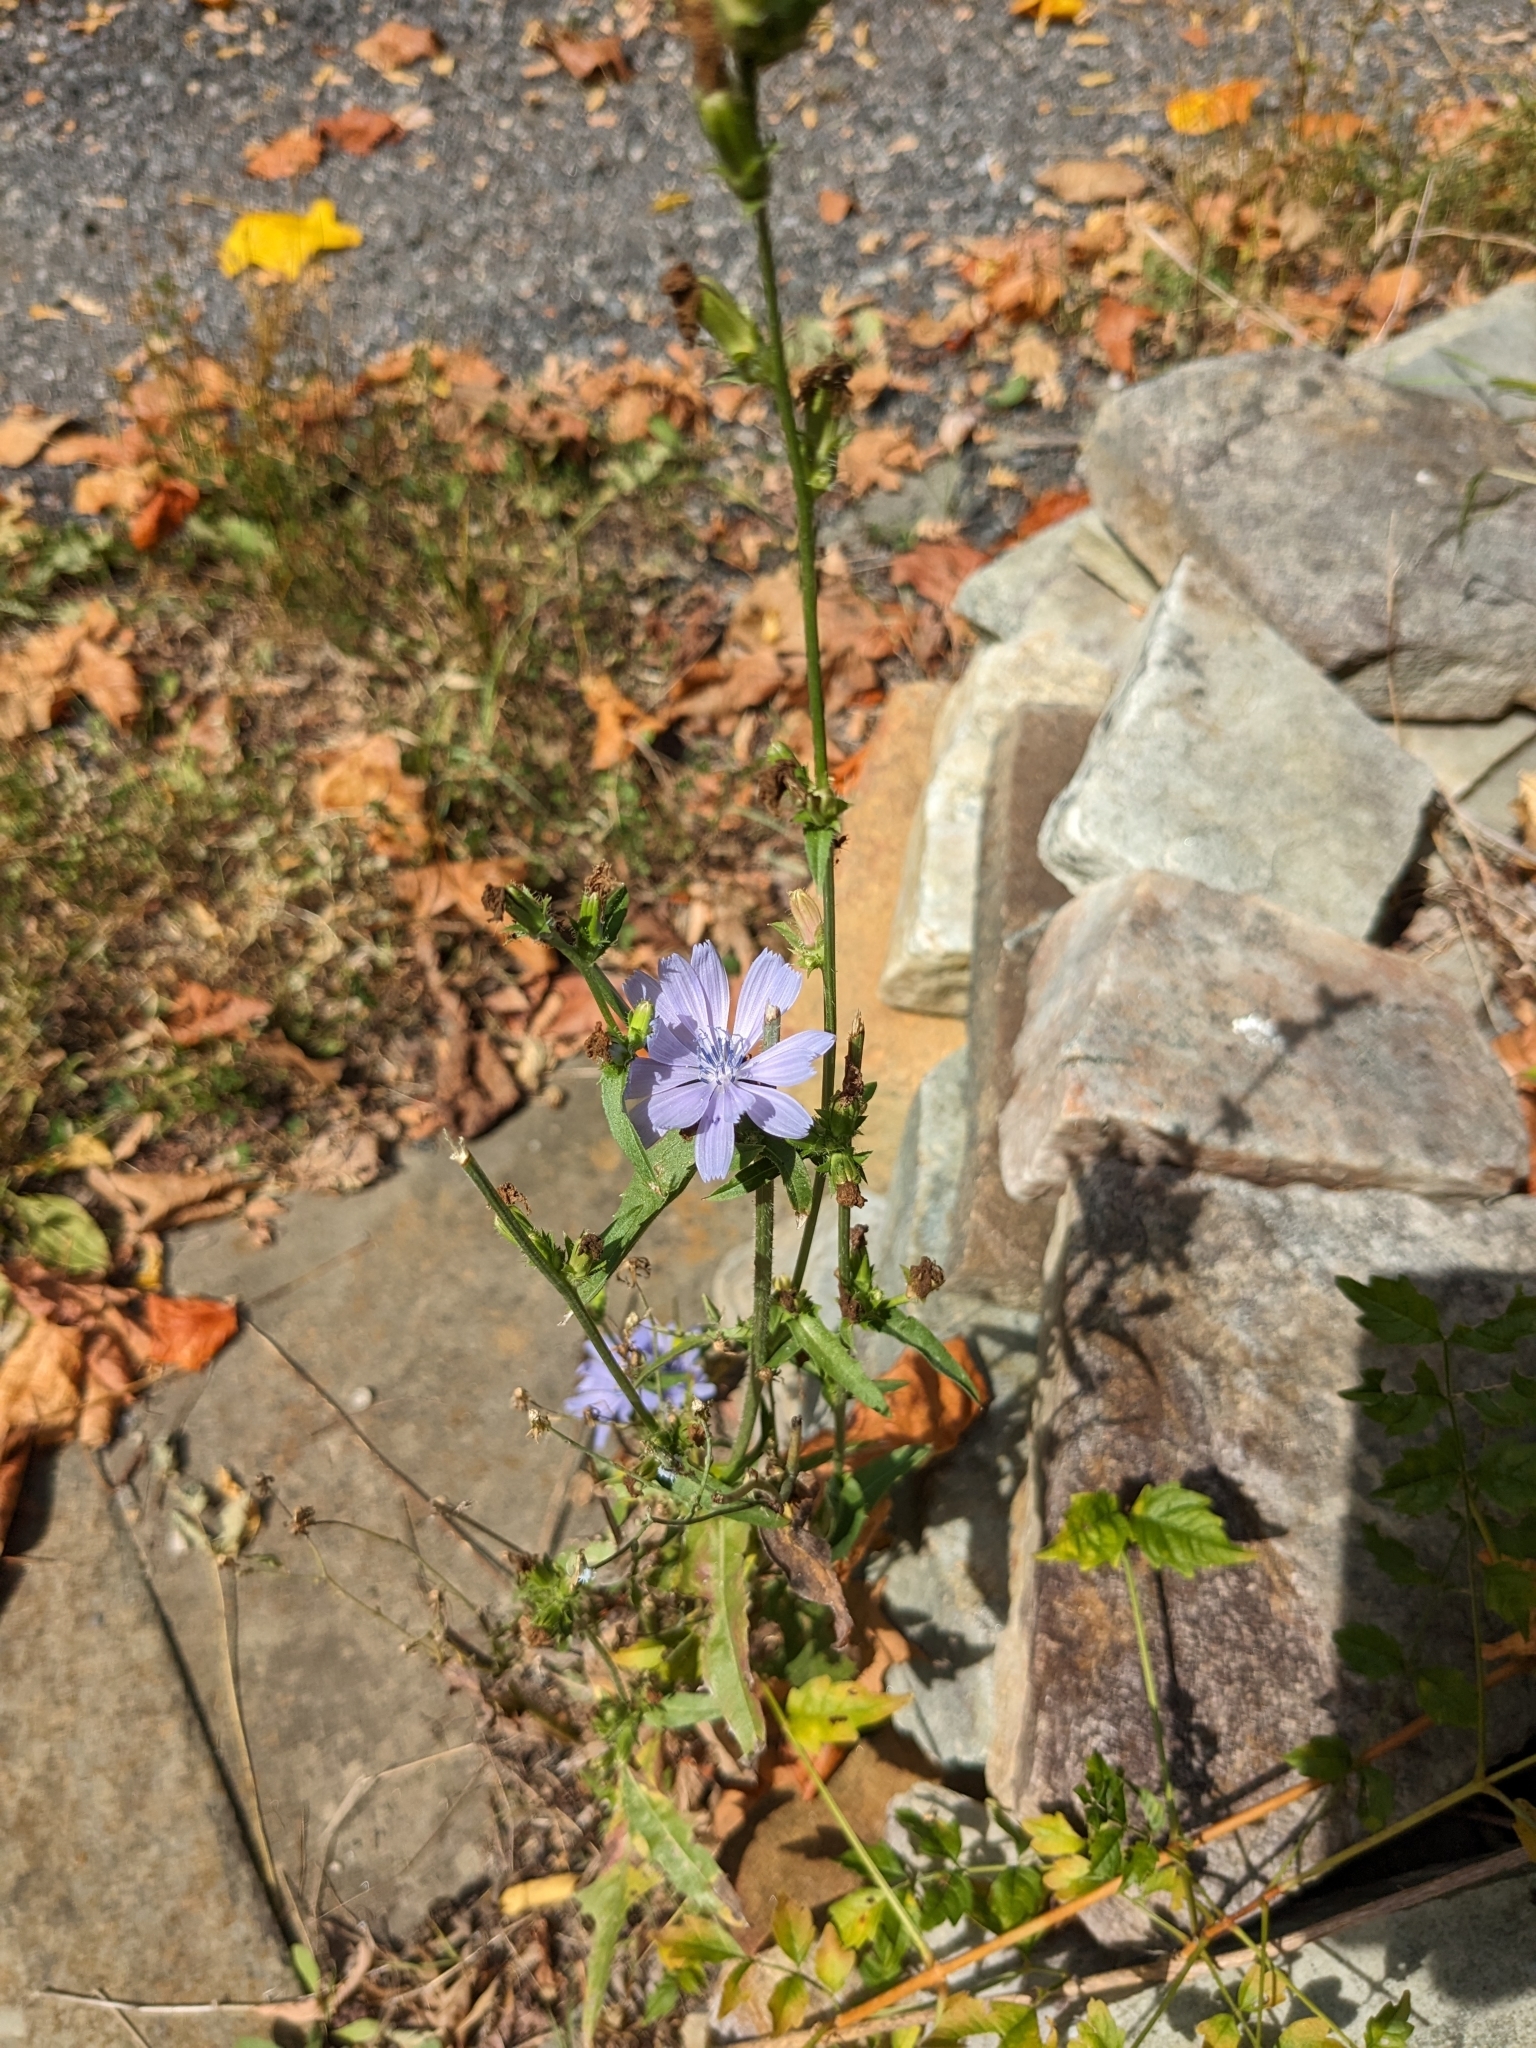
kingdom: Plantae
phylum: Tracheophyta
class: Magnoliopsida
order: Asterales
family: Asteraceae
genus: Cichorium
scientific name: Cichorium intybus
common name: Chicory
